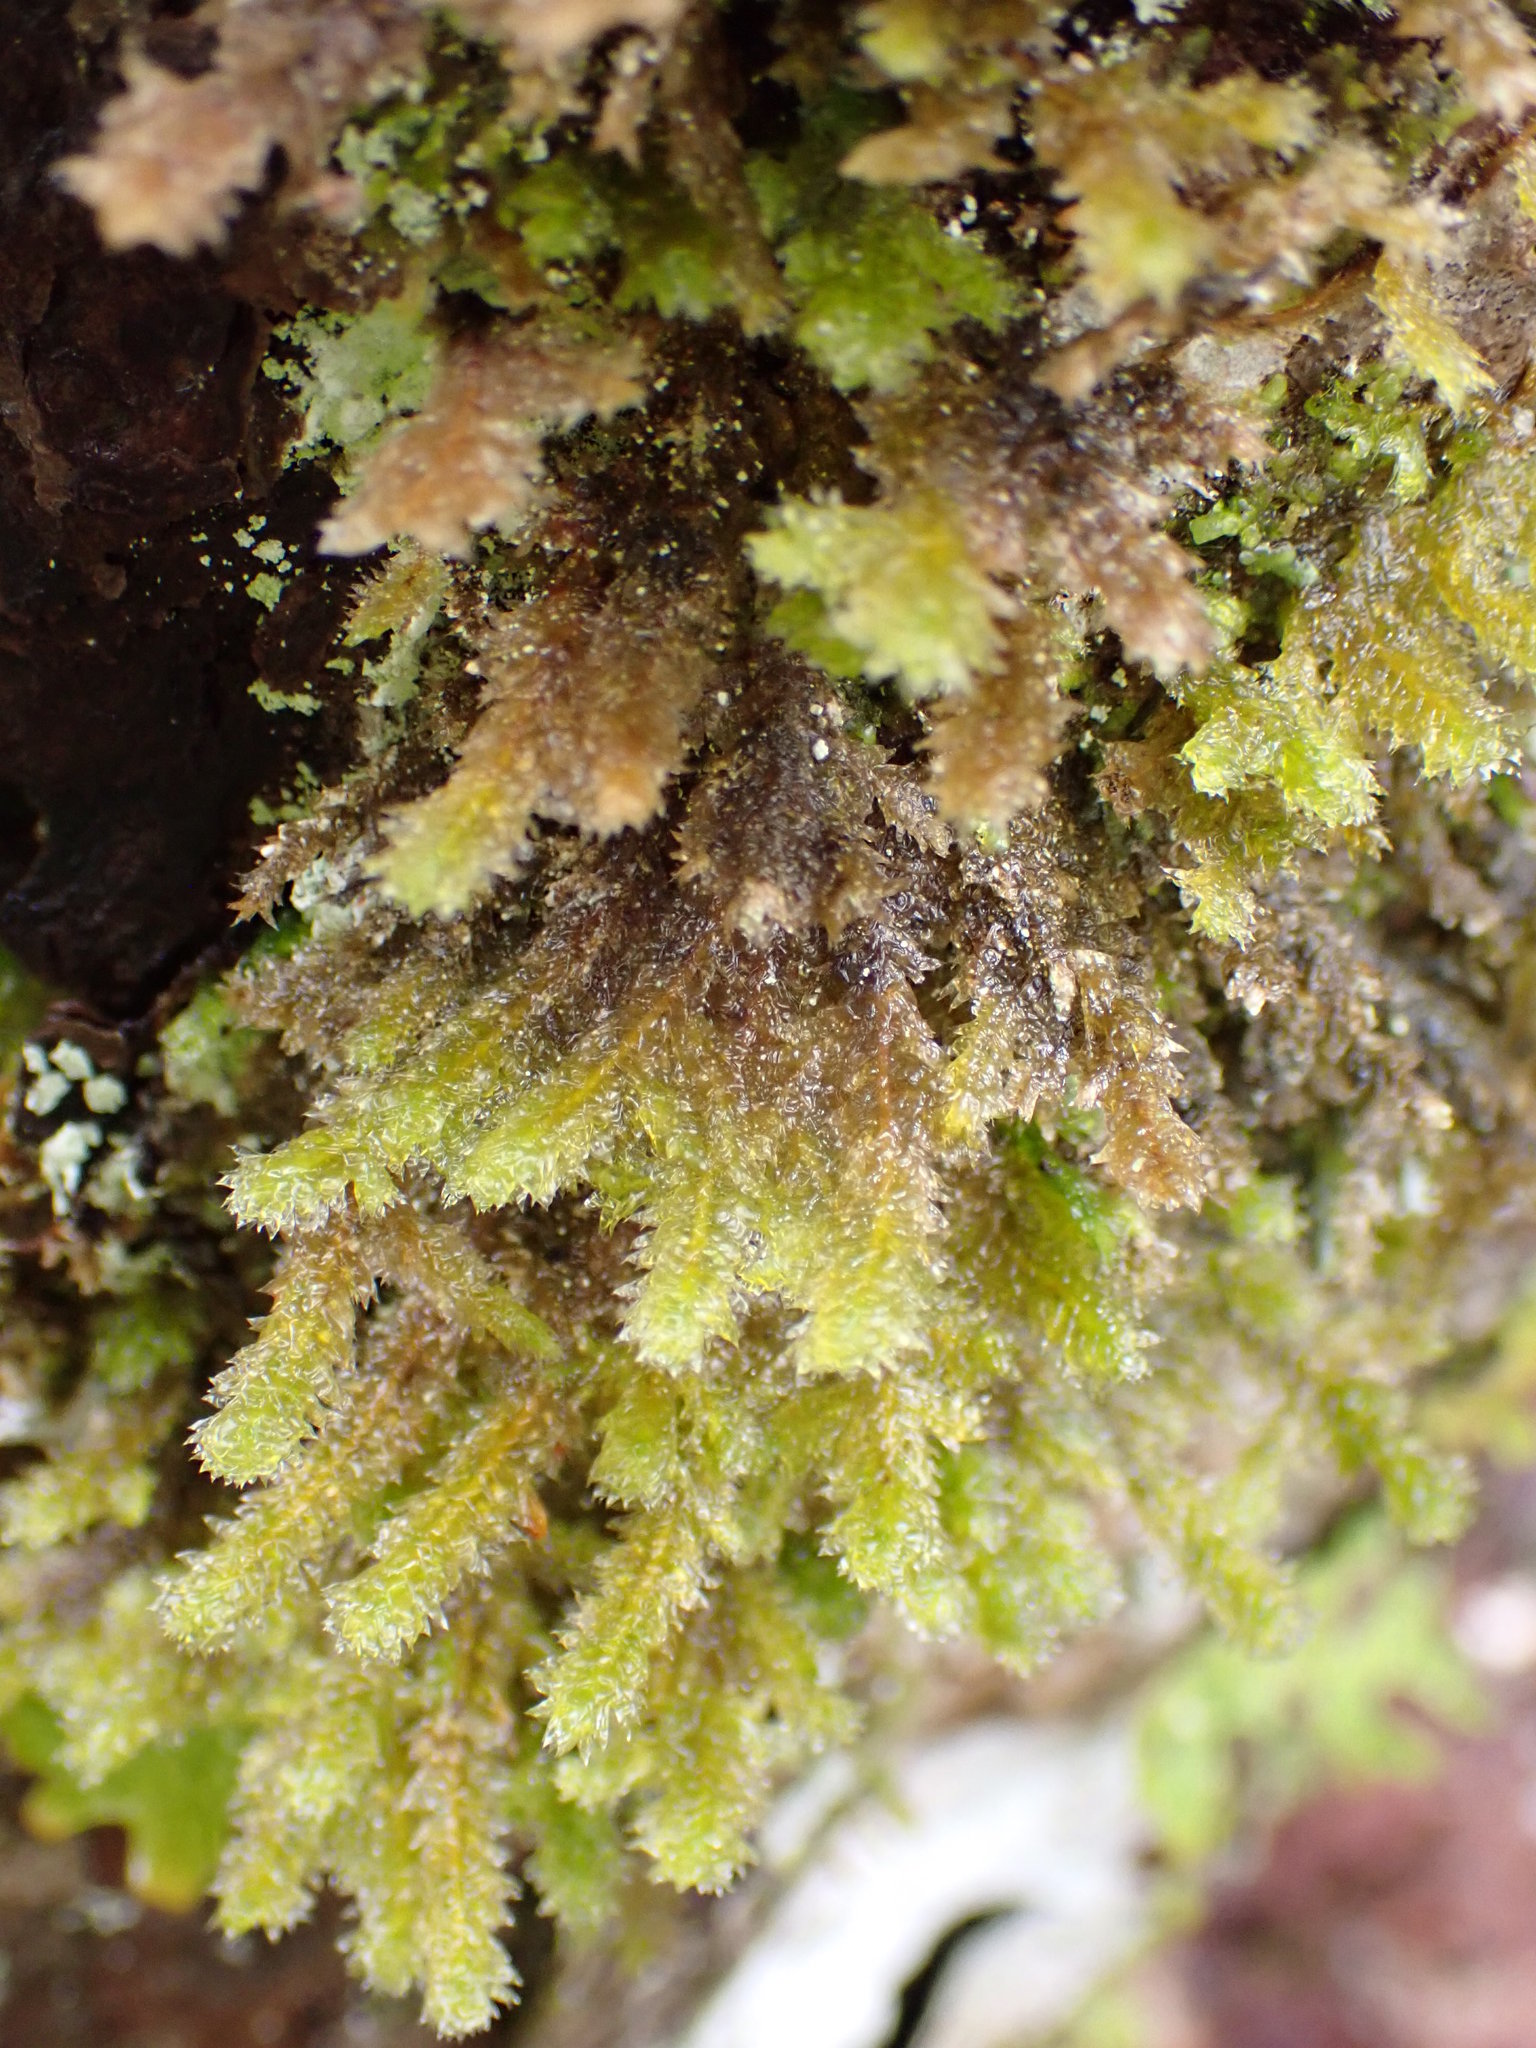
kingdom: Plantae
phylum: Bryophyta
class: Bryopsida
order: Hypnales
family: Neckeraceae
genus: Neckera
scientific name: Neckera pennata
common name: Feathery neckera
